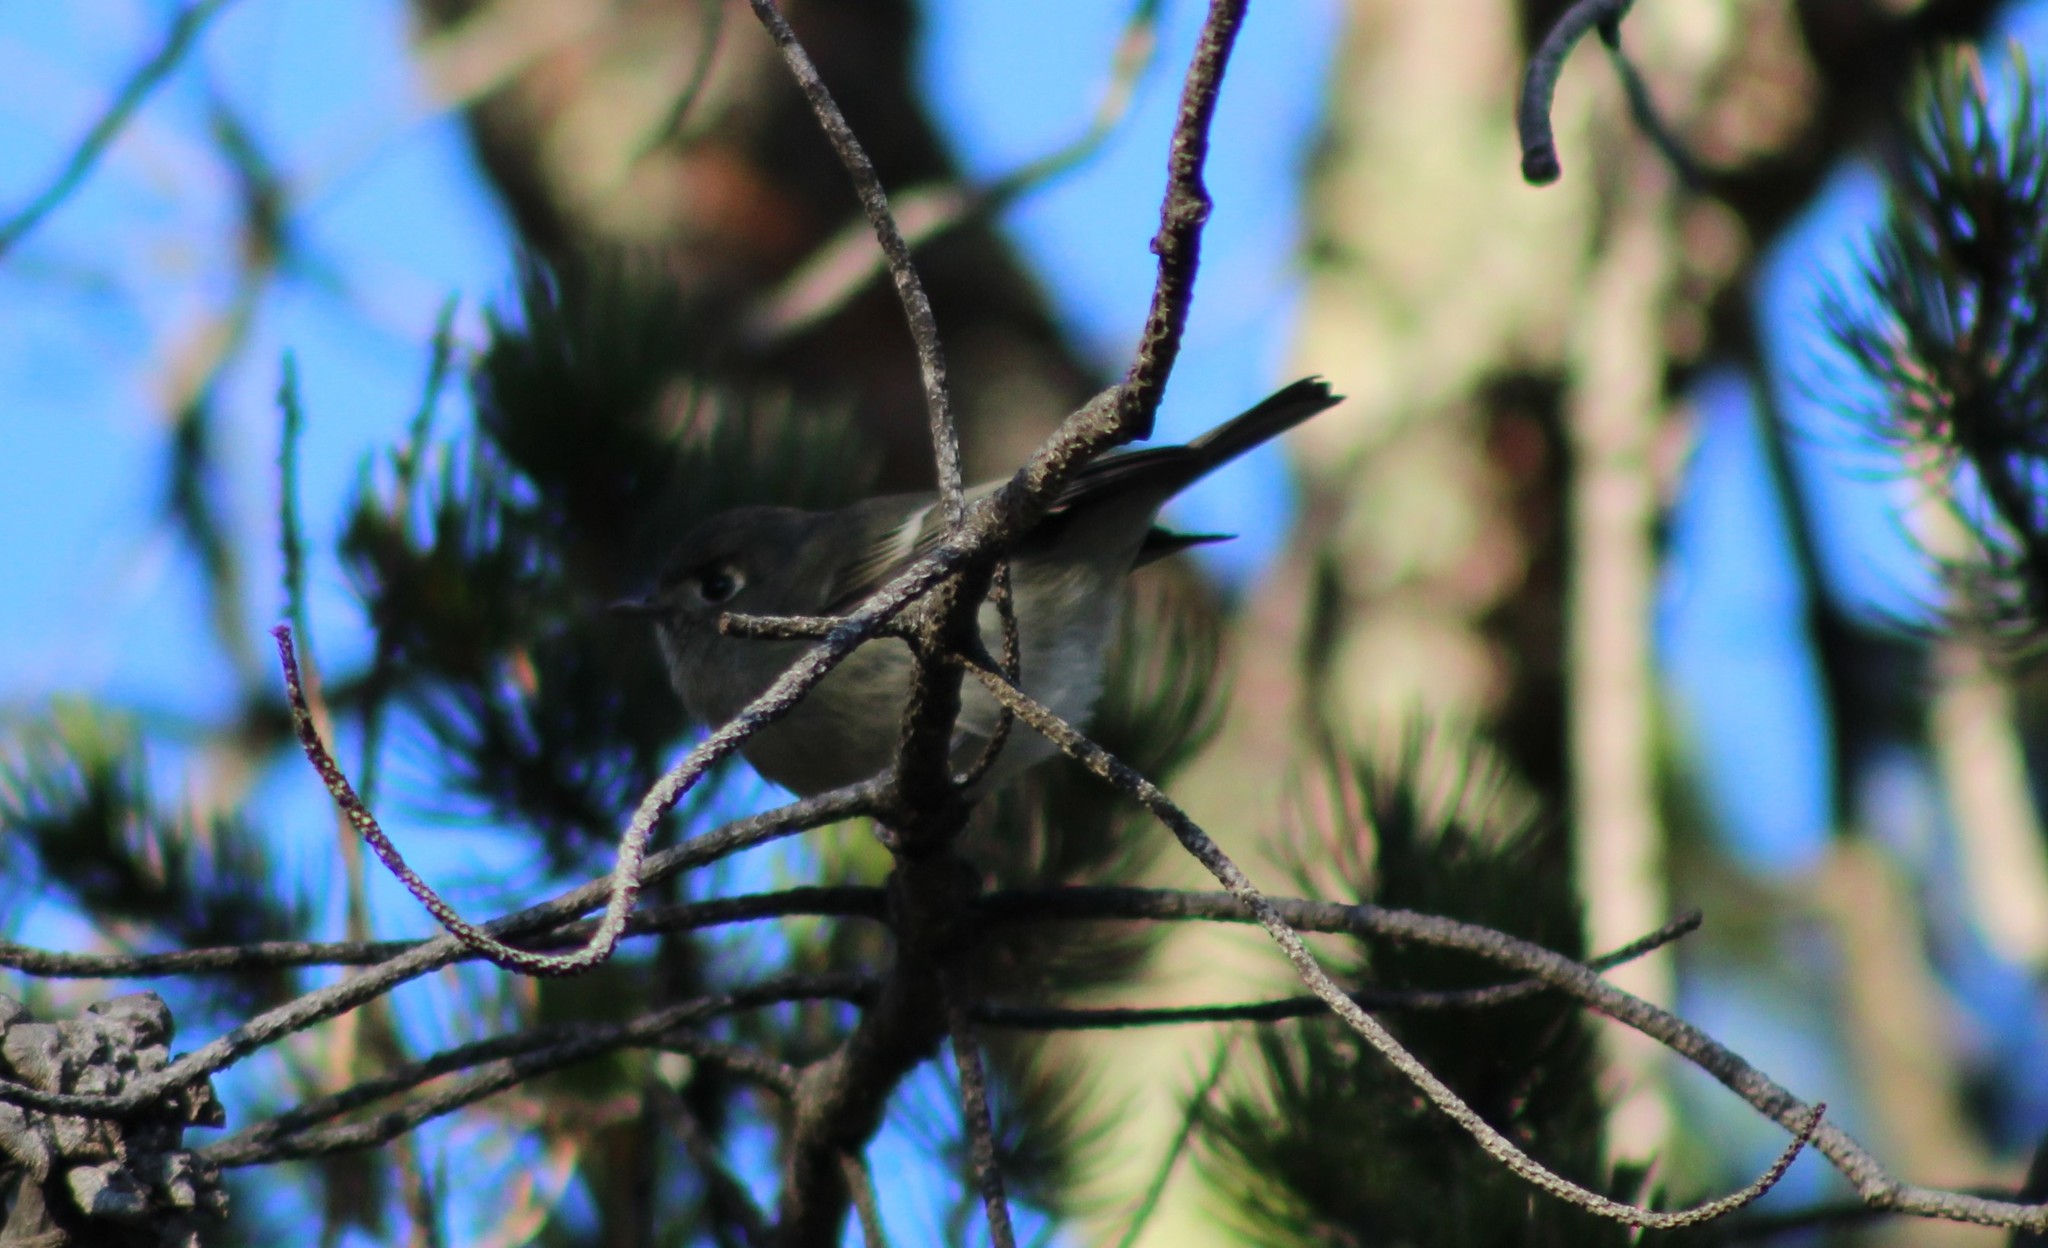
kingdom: Animalia
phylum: Chordata
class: Aves
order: Passeriformes
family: Regulidae
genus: Regulus
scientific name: Regulus calendula
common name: Ruby-crowned kinglet
